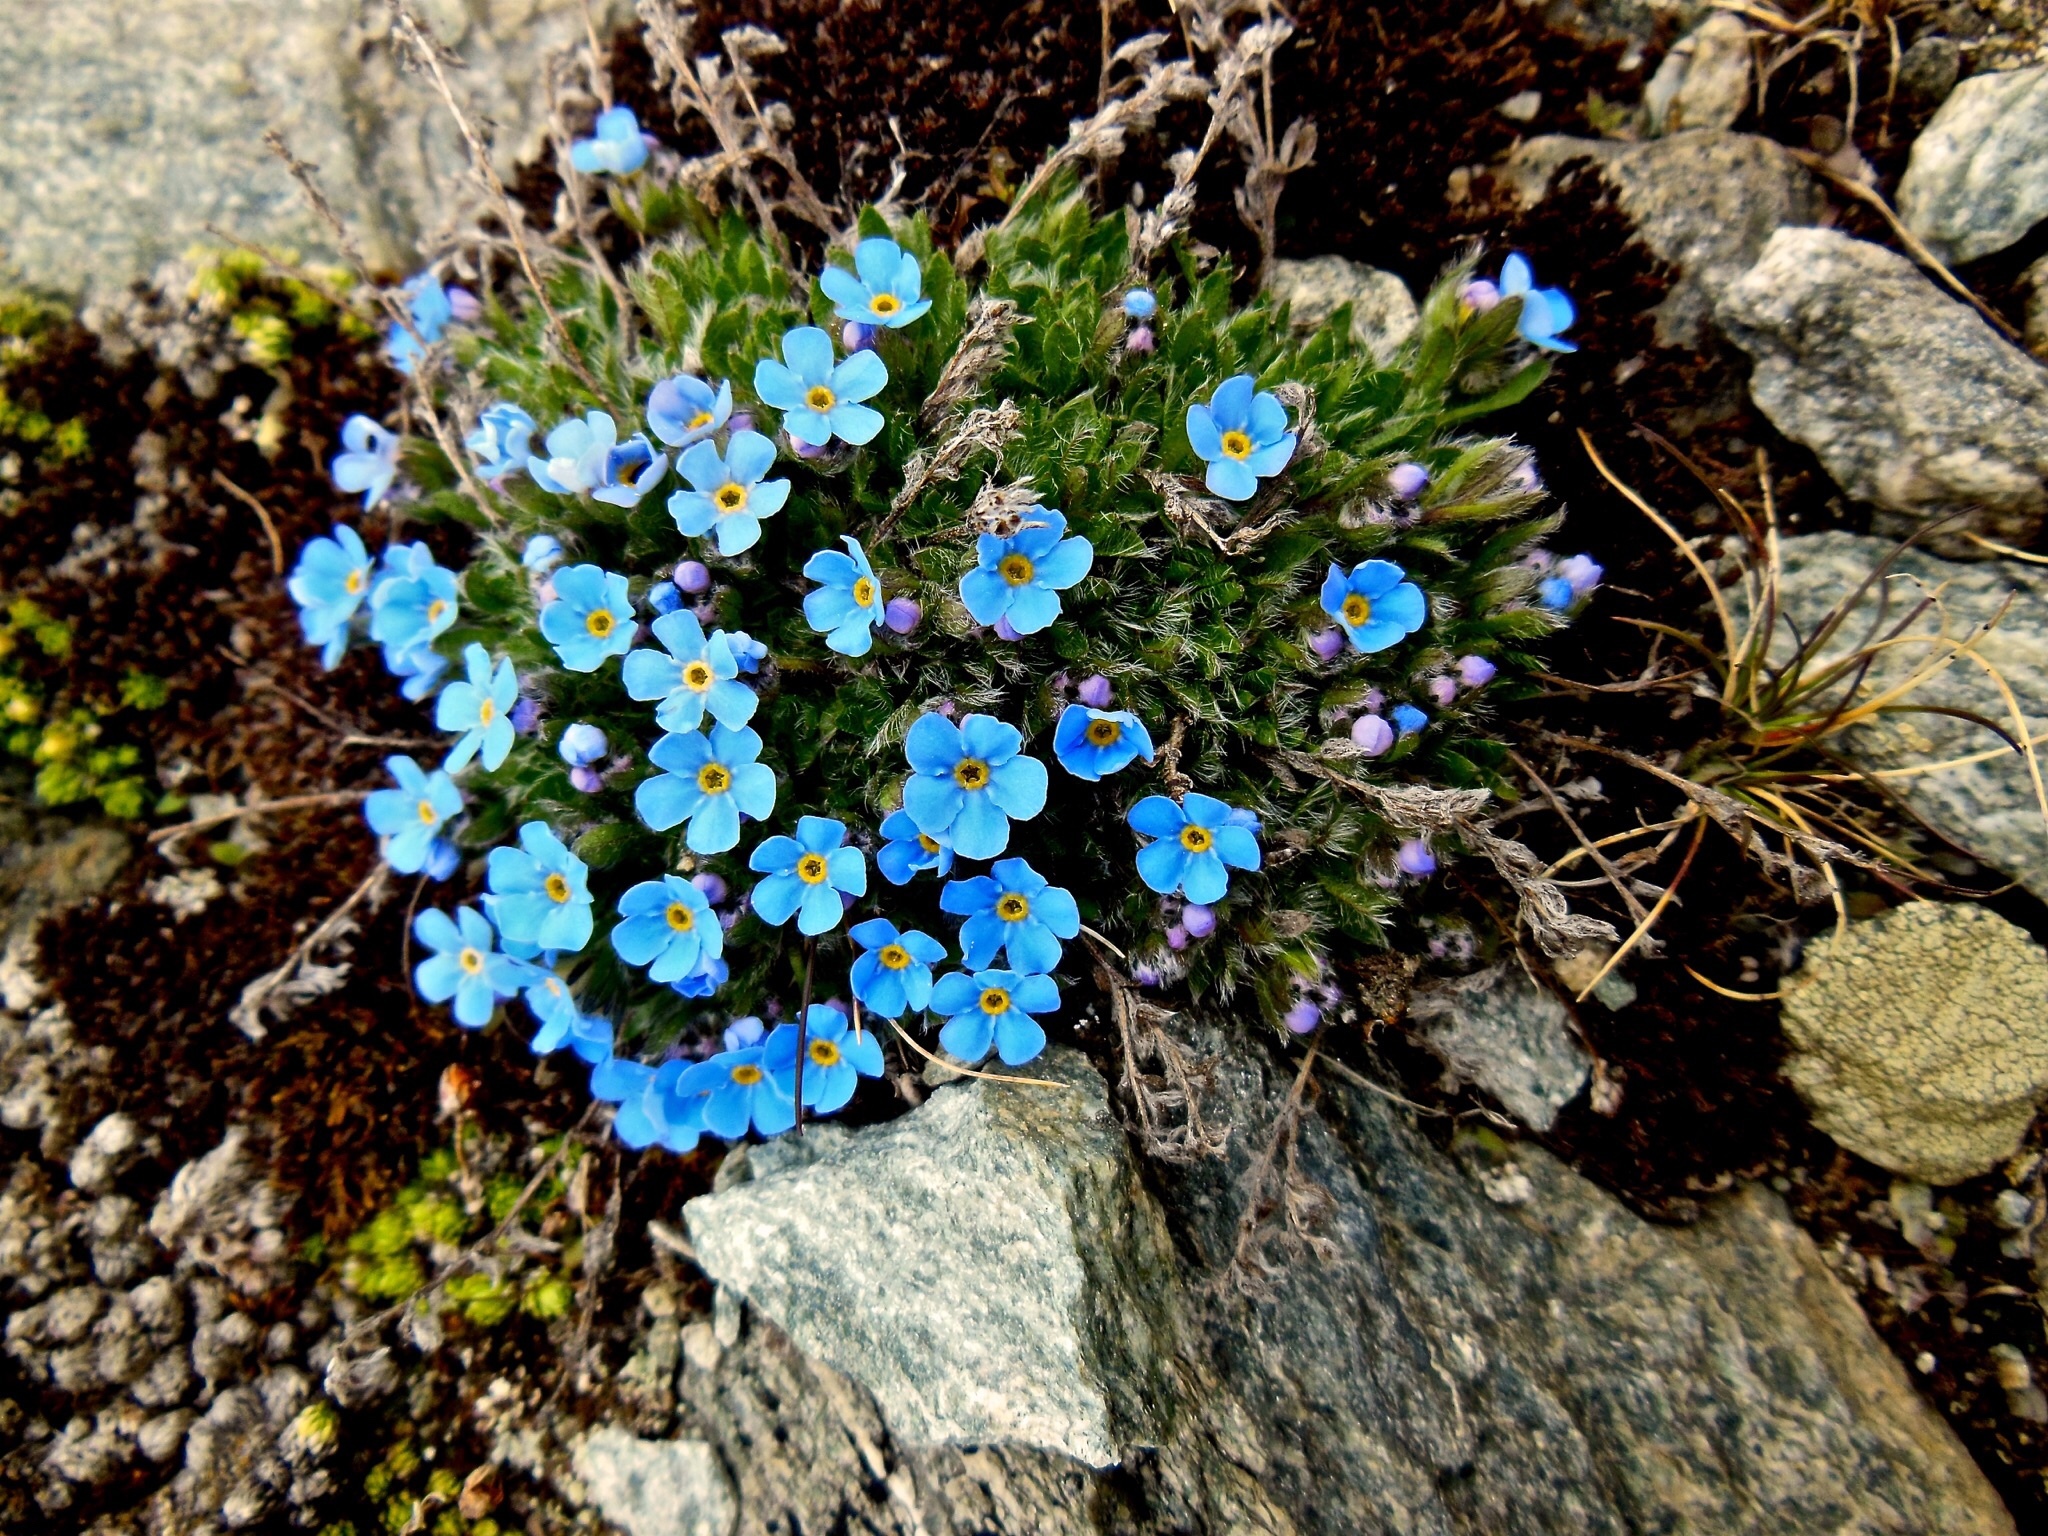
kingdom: Plantae
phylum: Tracheophyta
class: Magnoliopsida
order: Boraginales
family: Boraginaceae
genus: Eritrichium
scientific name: Eritrichium nanum
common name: King-of-the-alps
